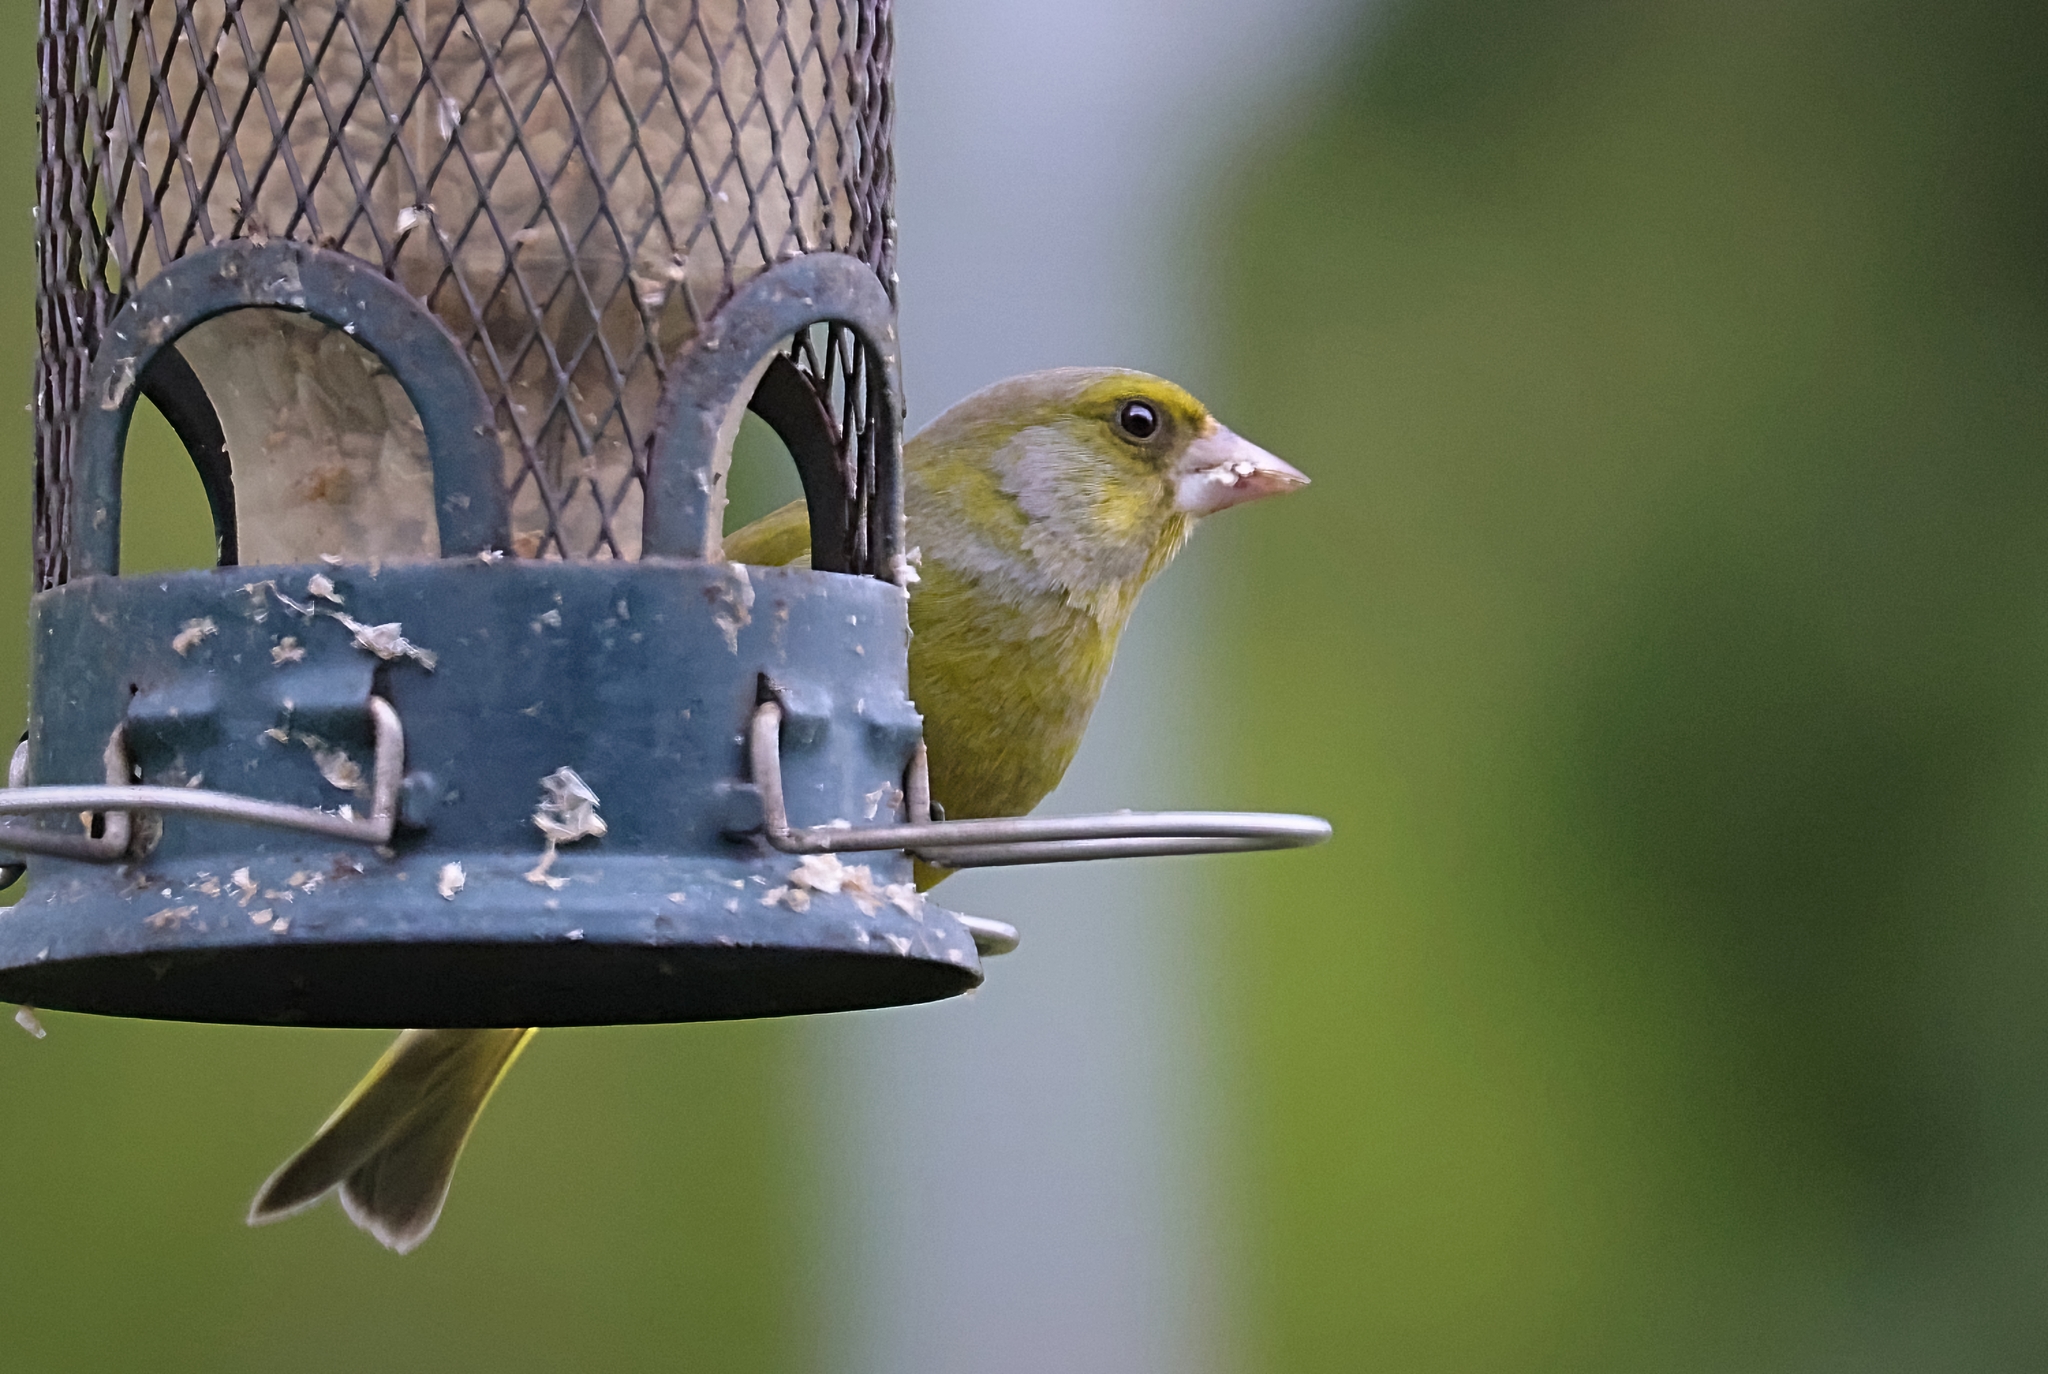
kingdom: Plantae
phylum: Tracheophyta
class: Liliopsida
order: Poales
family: Poaceae
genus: Chloris
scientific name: Chloris chloris
